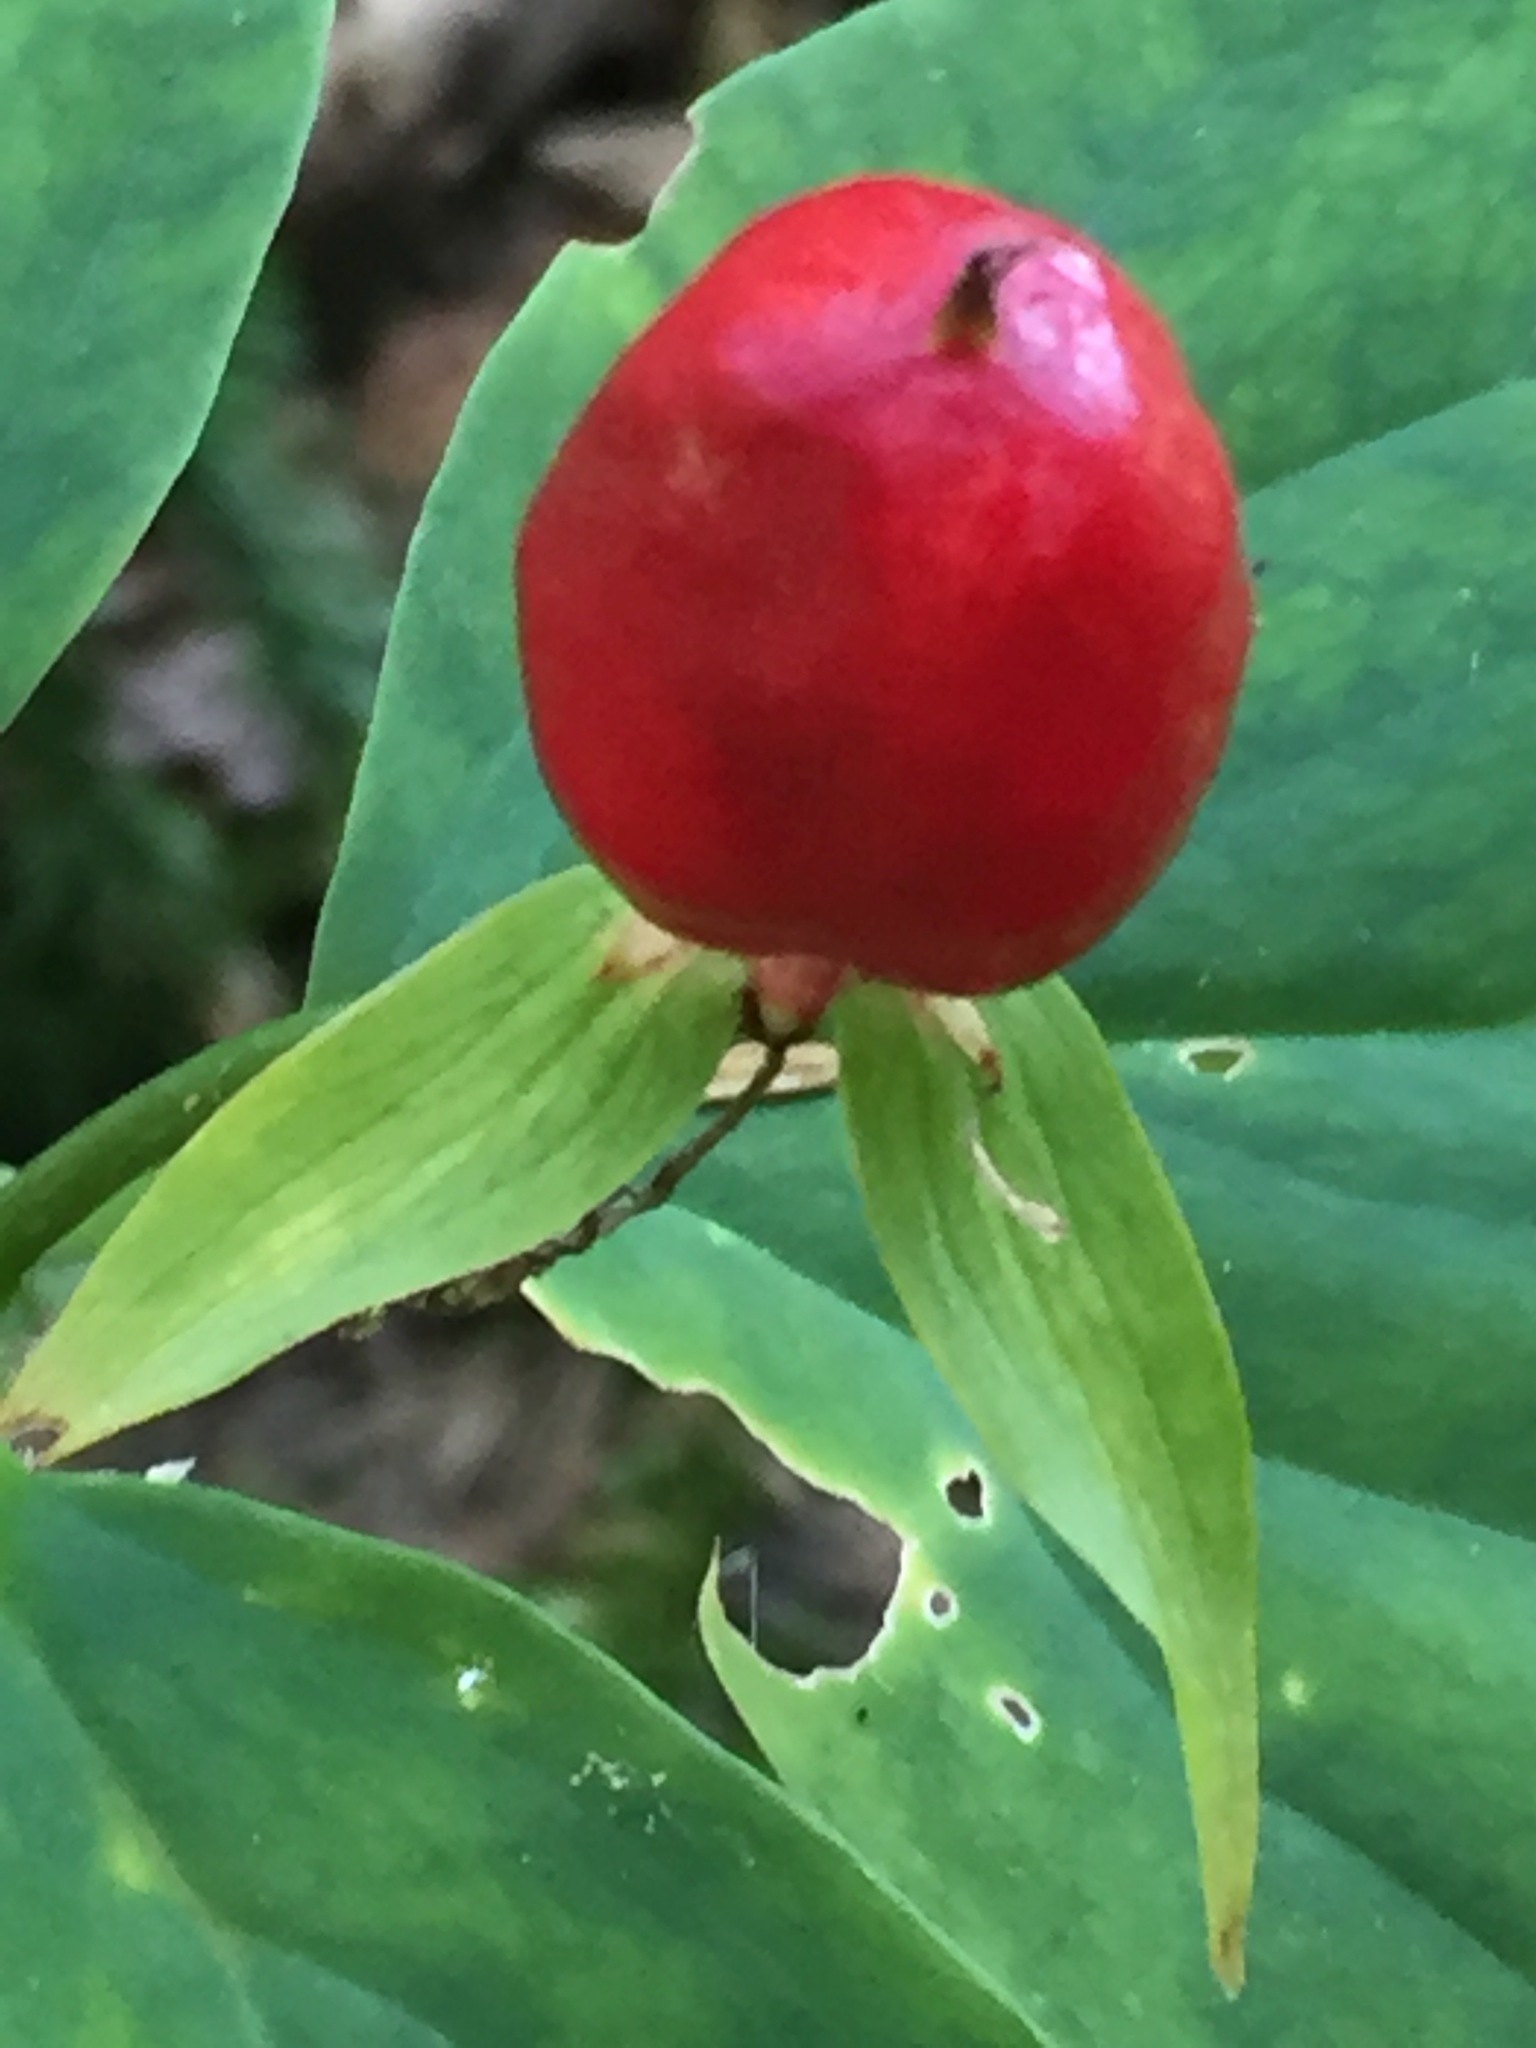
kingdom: Plantae
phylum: Tracheophyta
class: Liliopsida
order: Liliales
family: Melanthiaceae
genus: Trillium
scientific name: Trillium undulatum
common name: Paint trillium
